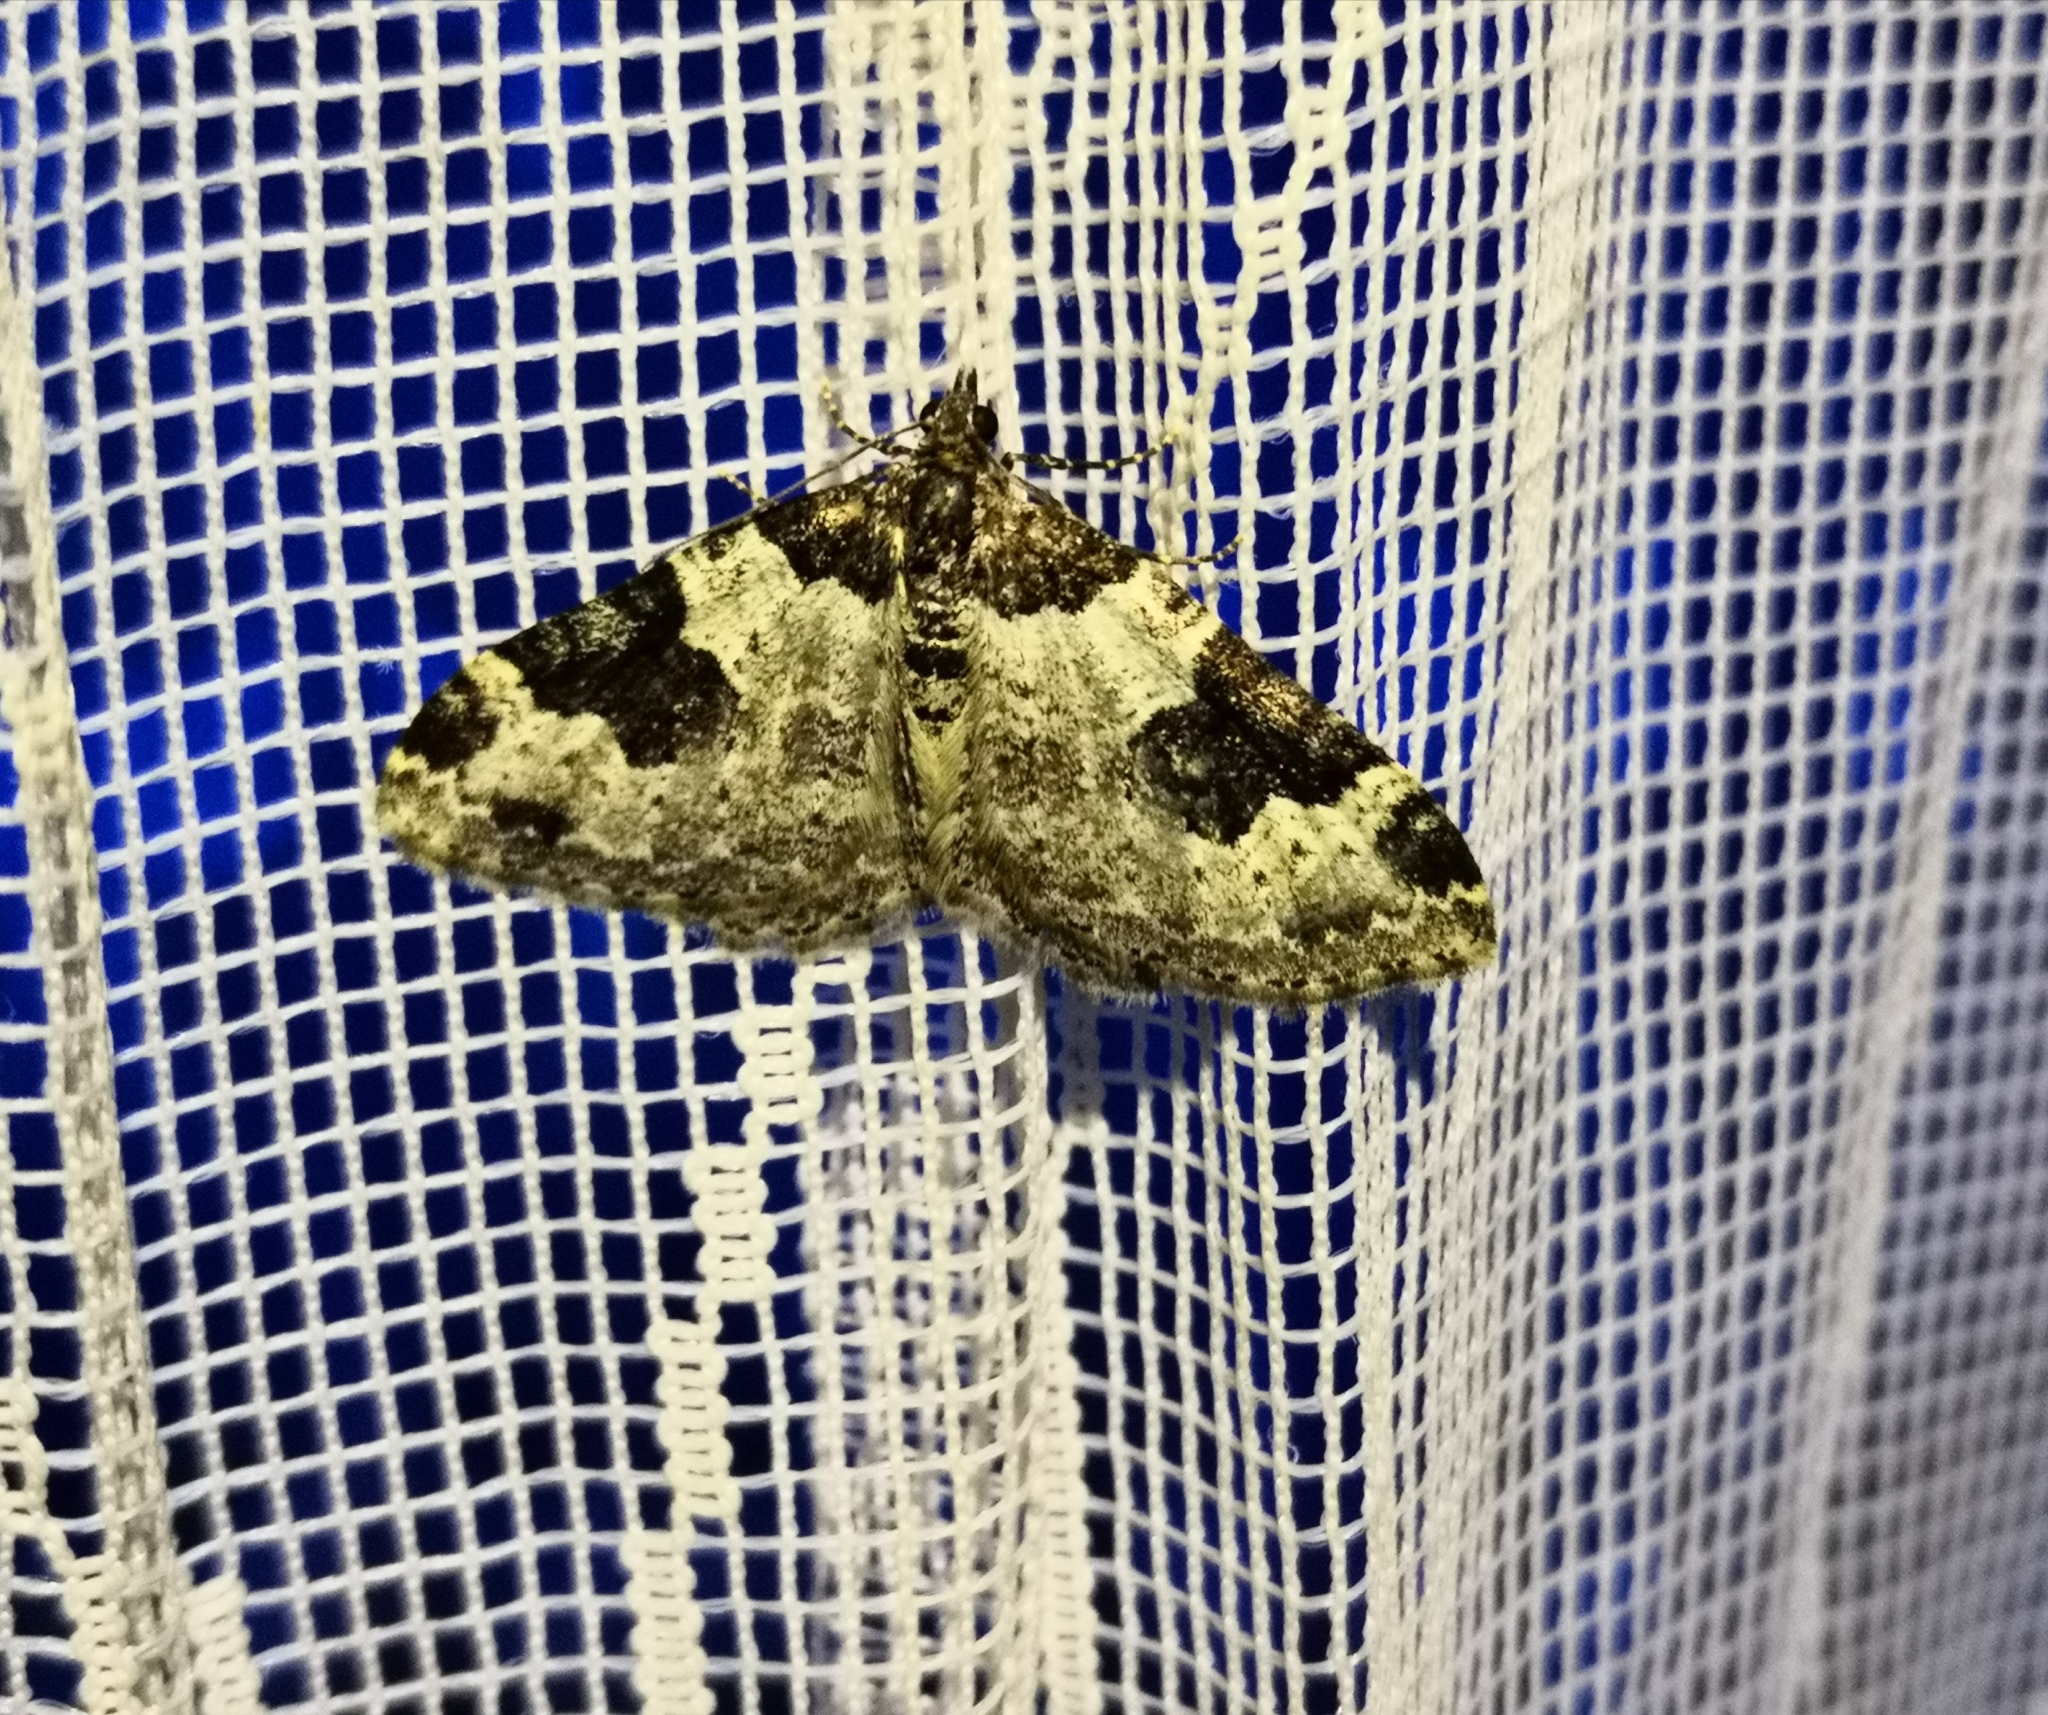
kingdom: Animalia
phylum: Arthropoda
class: Insecta
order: Lepidoptera
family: Geometridae
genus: Xanthorhoe
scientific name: Xanthorhoe fluctuata
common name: Garden carpet
